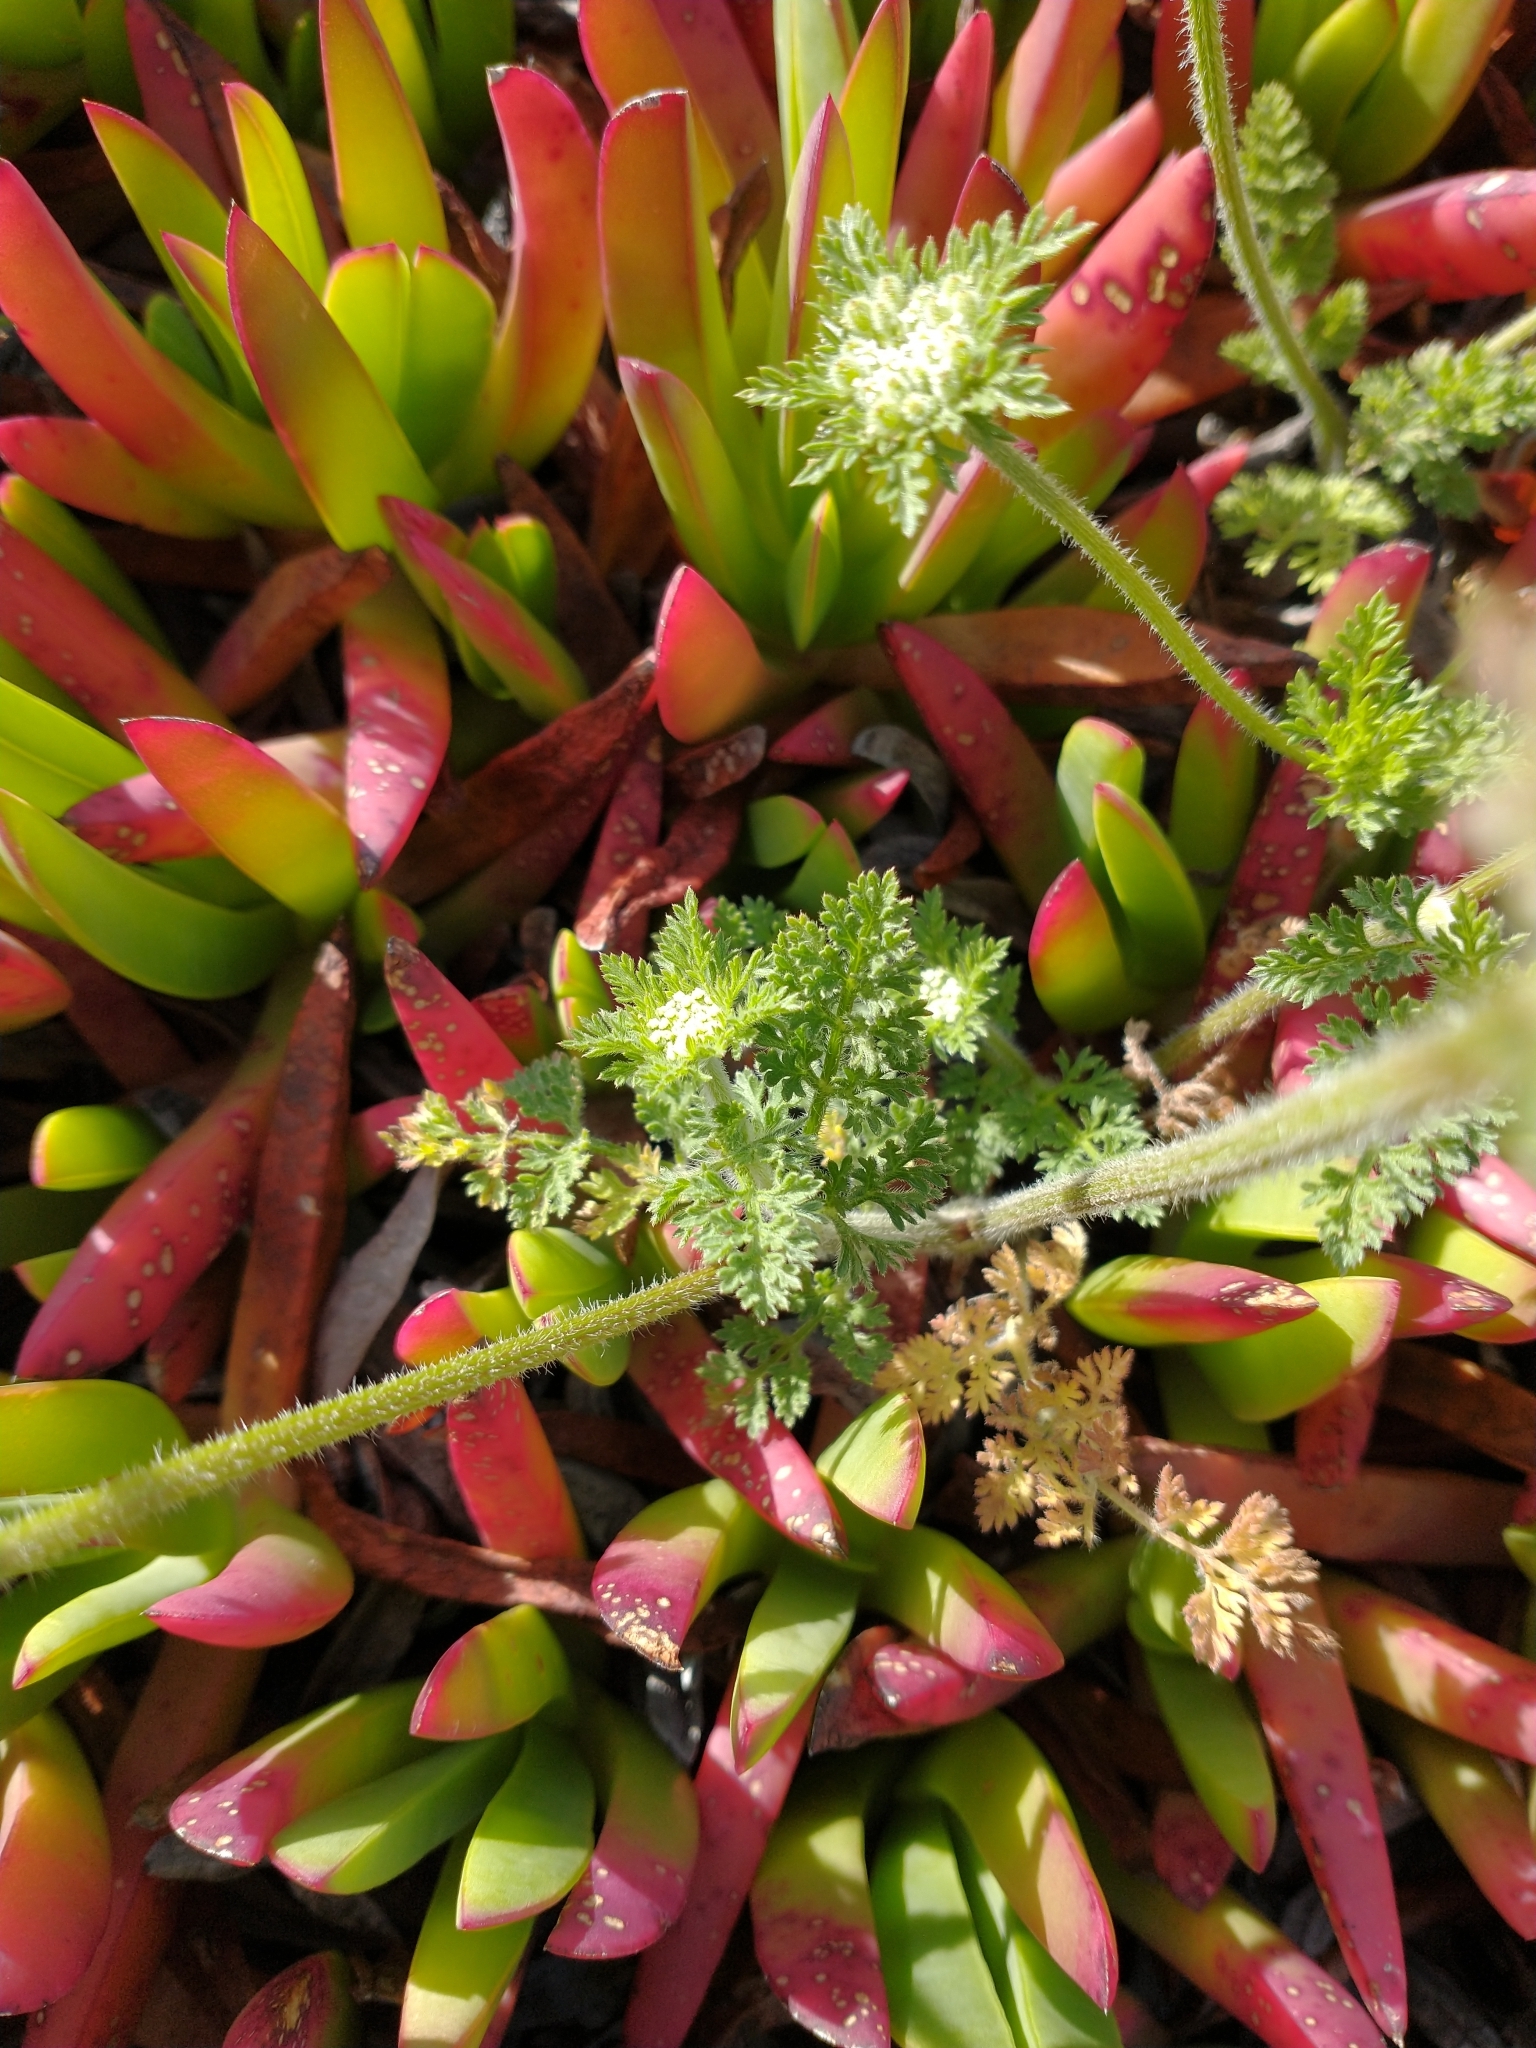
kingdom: Plantae
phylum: Tracheophyta
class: Magnoliopsida
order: Apiales
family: Apiaceae
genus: Daucus
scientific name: Daucus pusillus
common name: Southwest wild carrot
